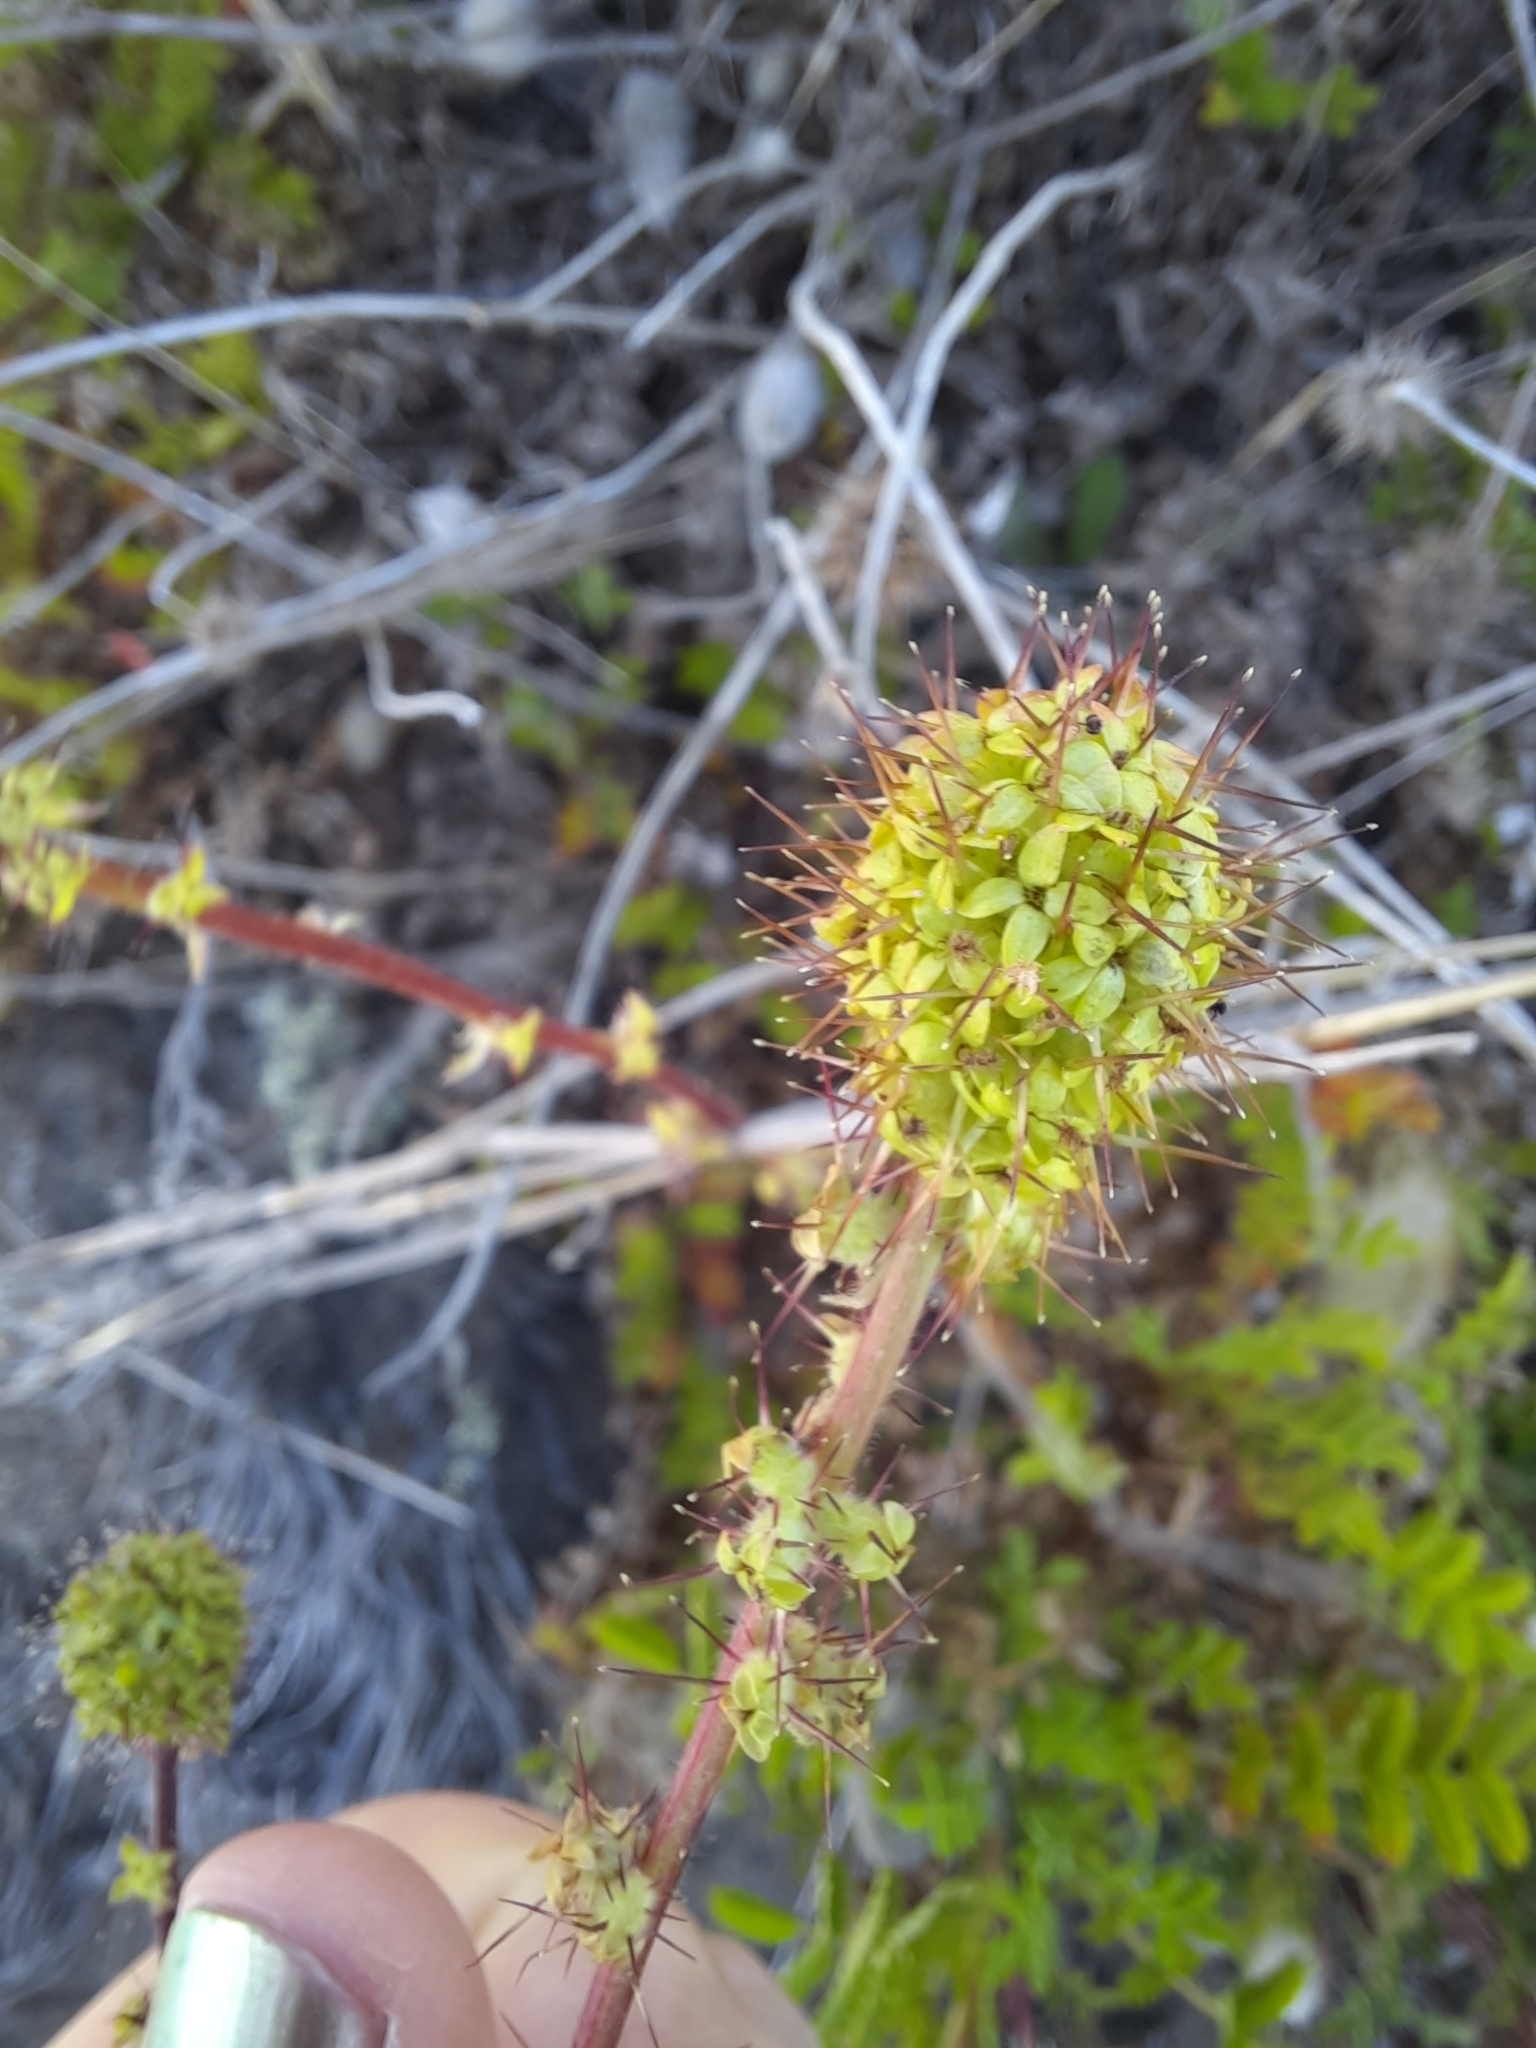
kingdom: Plantae
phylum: Tracheophyta
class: Magnoliopsida
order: Rosales
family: Rosaceae
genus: Acaena
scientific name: Acaena agnipila
